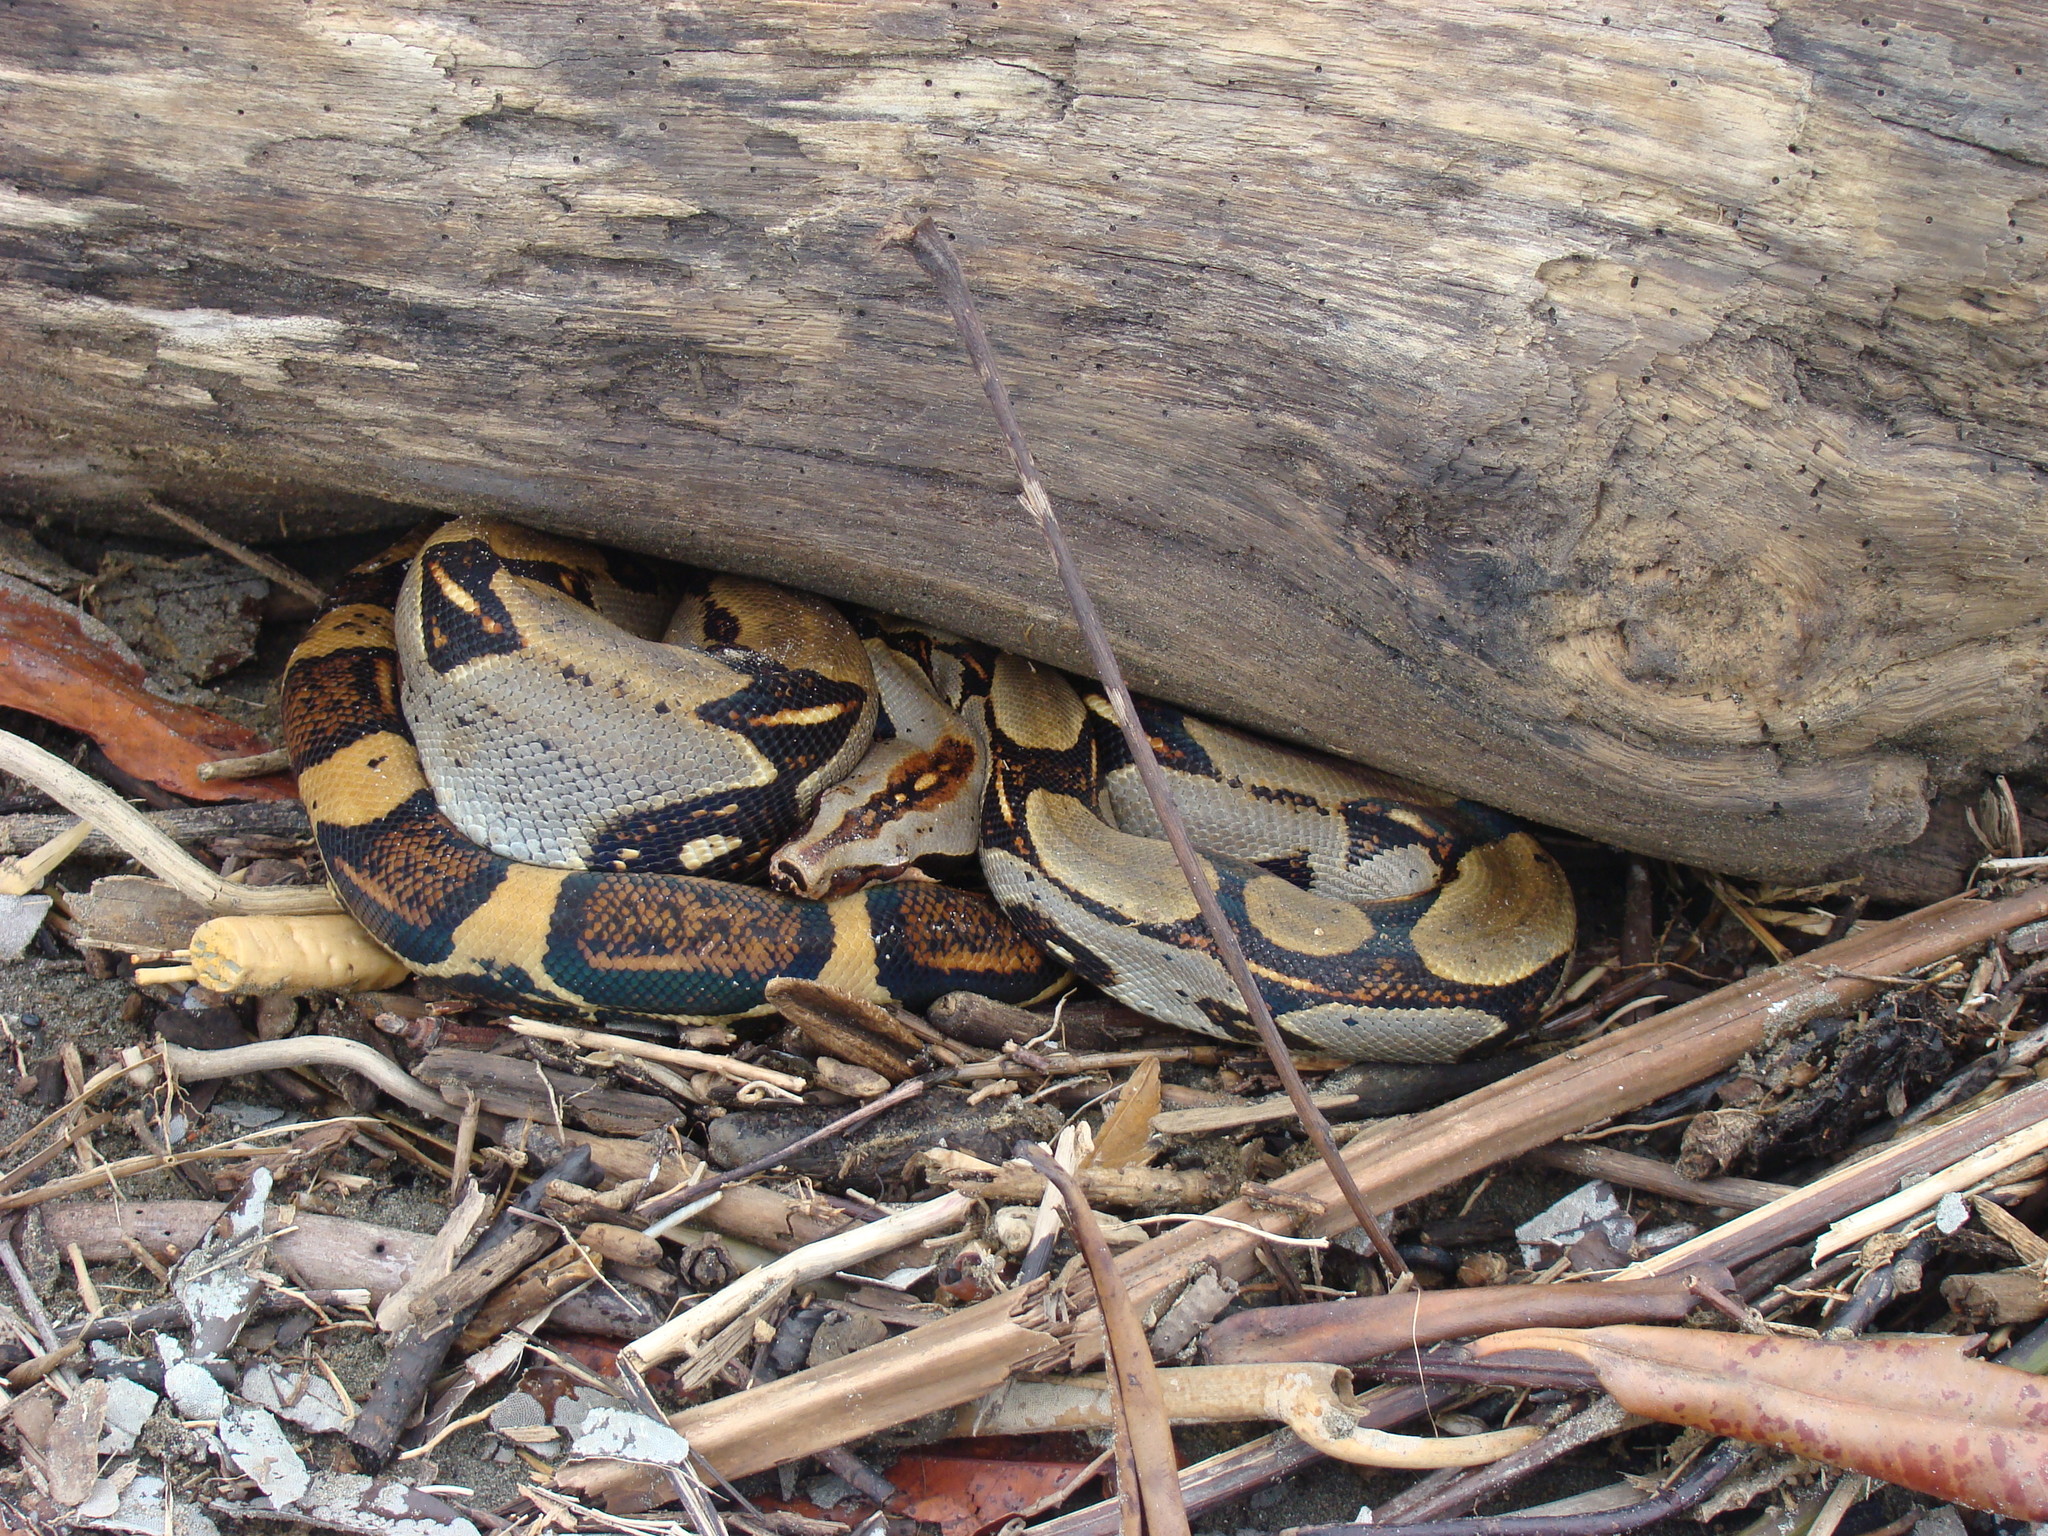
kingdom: Animalia
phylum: Chordata
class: Squamata
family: Boidae
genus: Boa
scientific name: Boa imperator
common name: Central american boa
